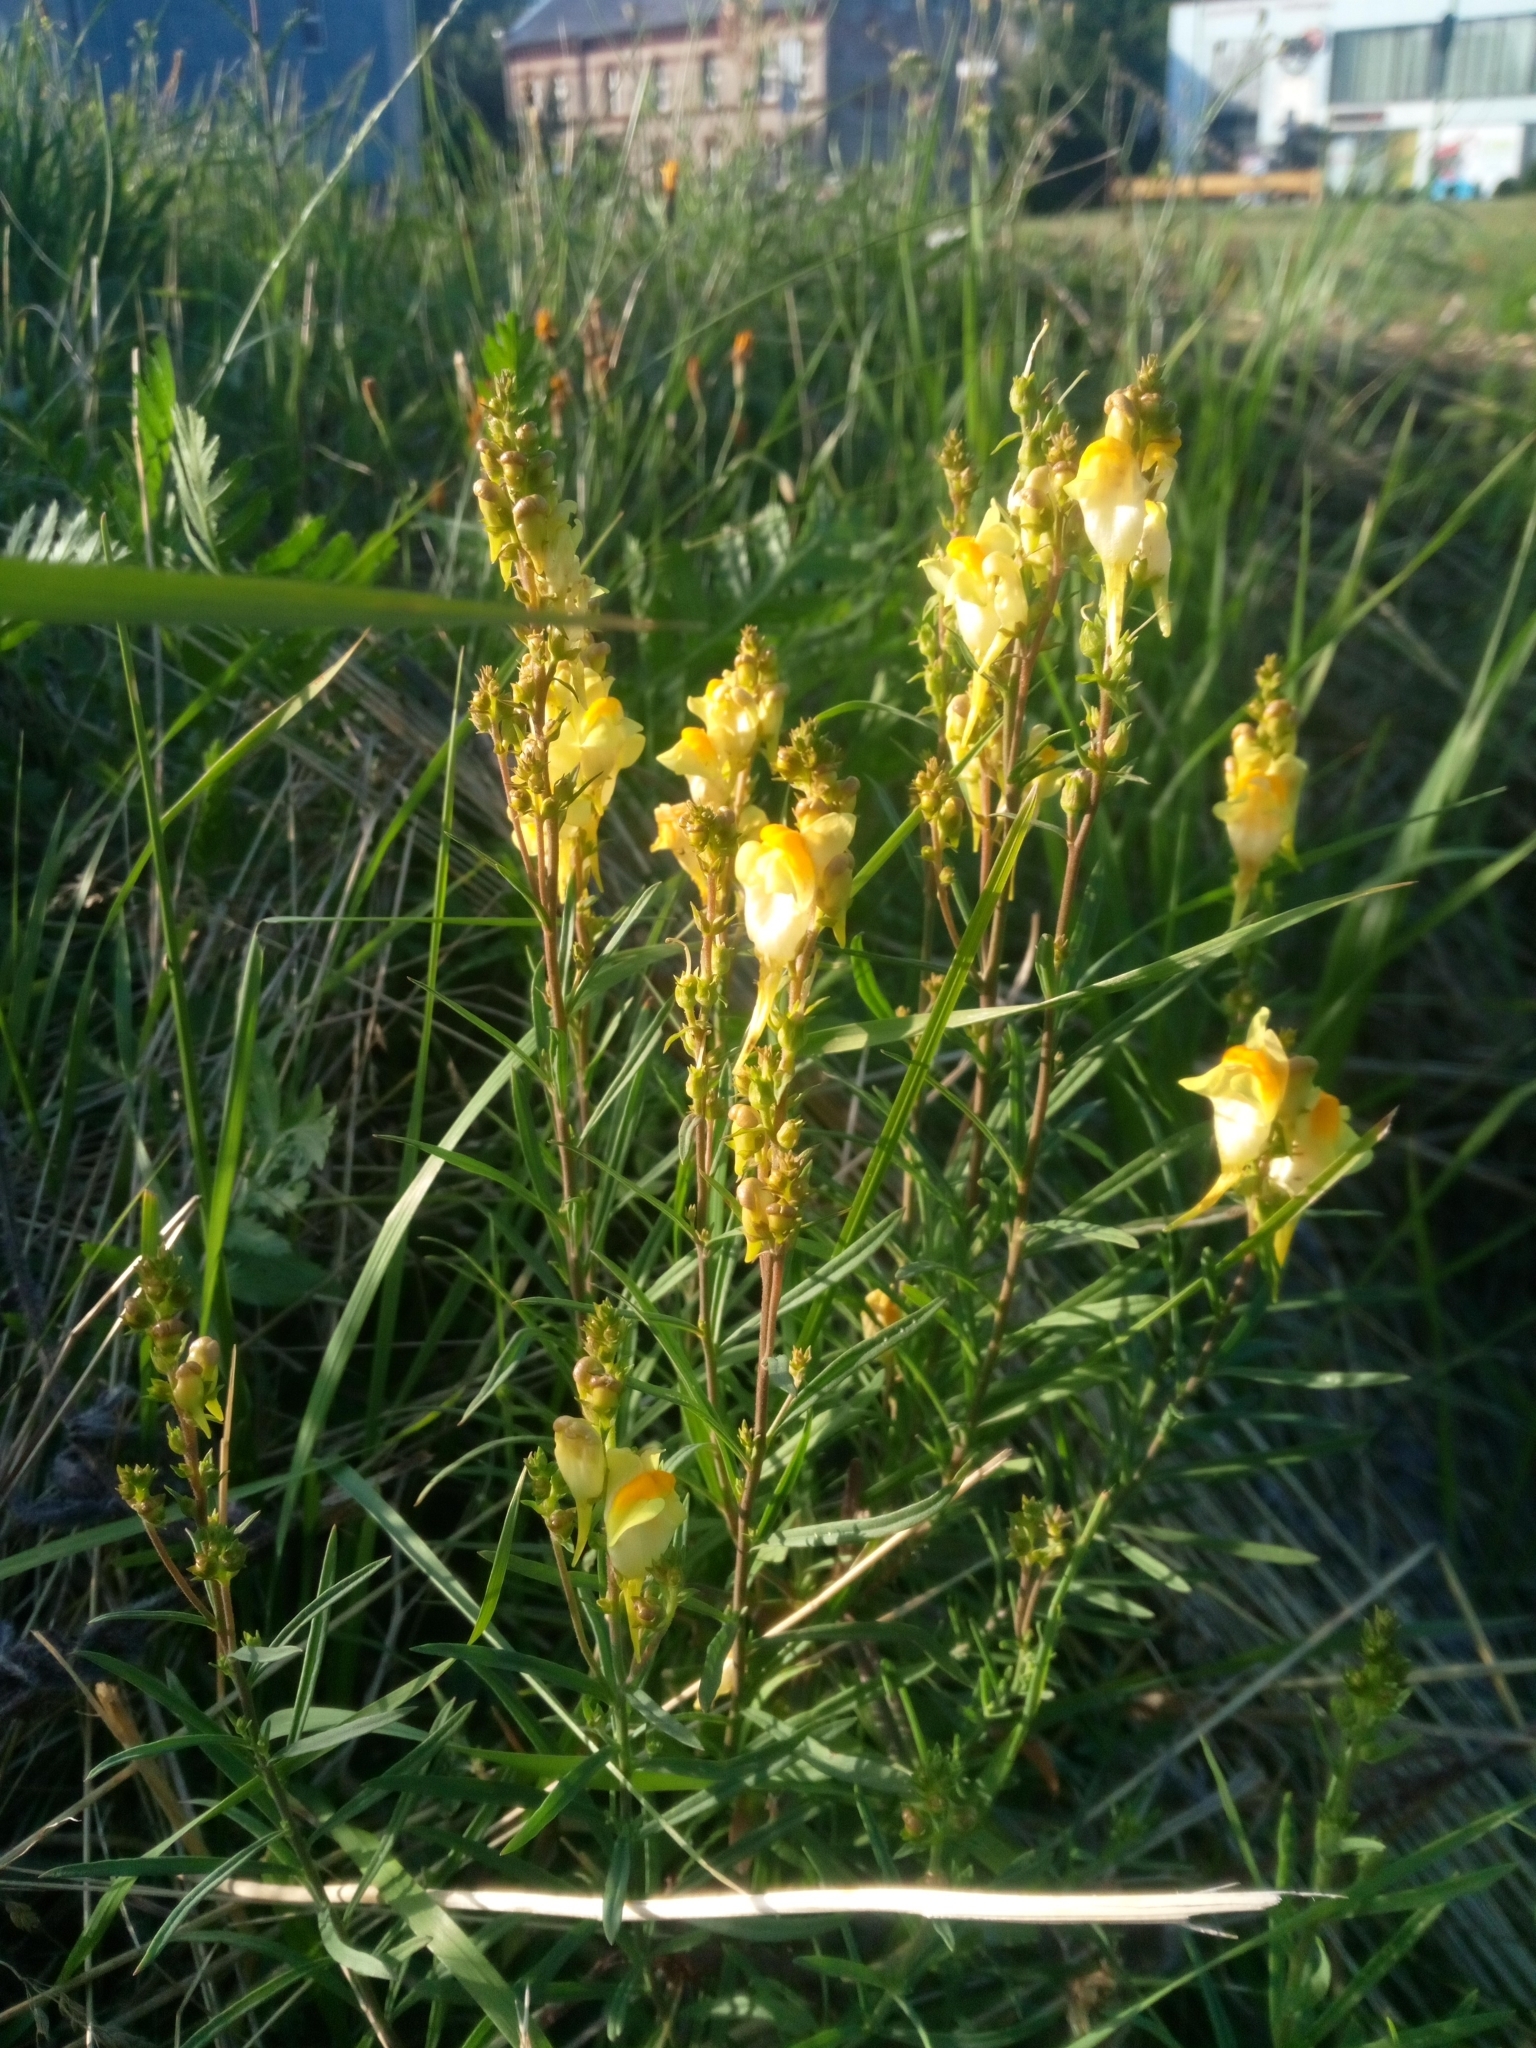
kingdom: Plantae
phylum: Tracheophyta
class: Magnoliopsida
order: Lamiales
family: Plantaginaceae
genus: Linaria
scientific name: Linaria vulgaris
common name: Butter and eggs
